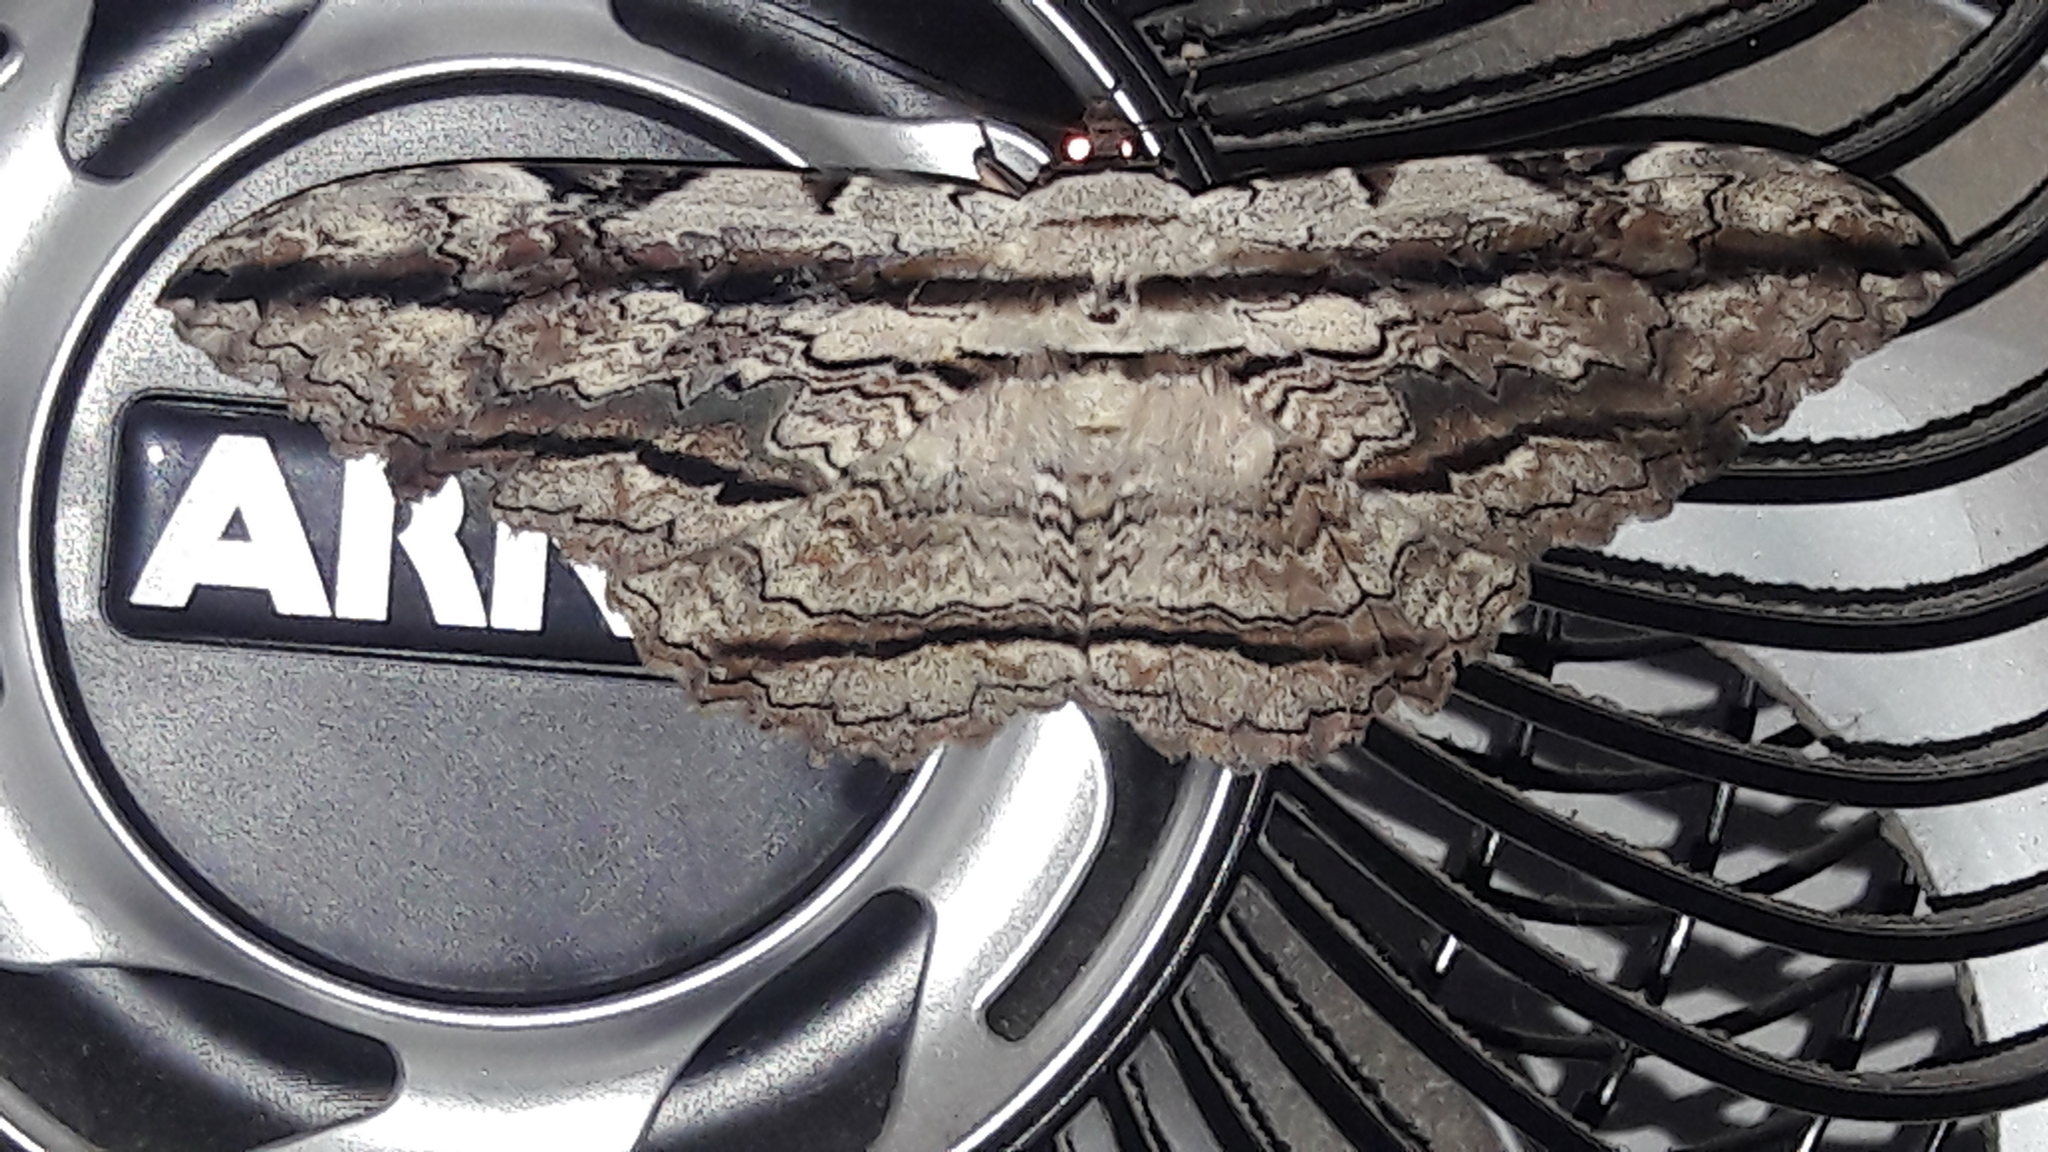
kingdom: Animalia
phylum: Arthropoda
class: Insecta
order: Lepidoptera
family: Erebidae
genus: Thysania
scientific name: Thysania zenobia
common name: Owl moth
